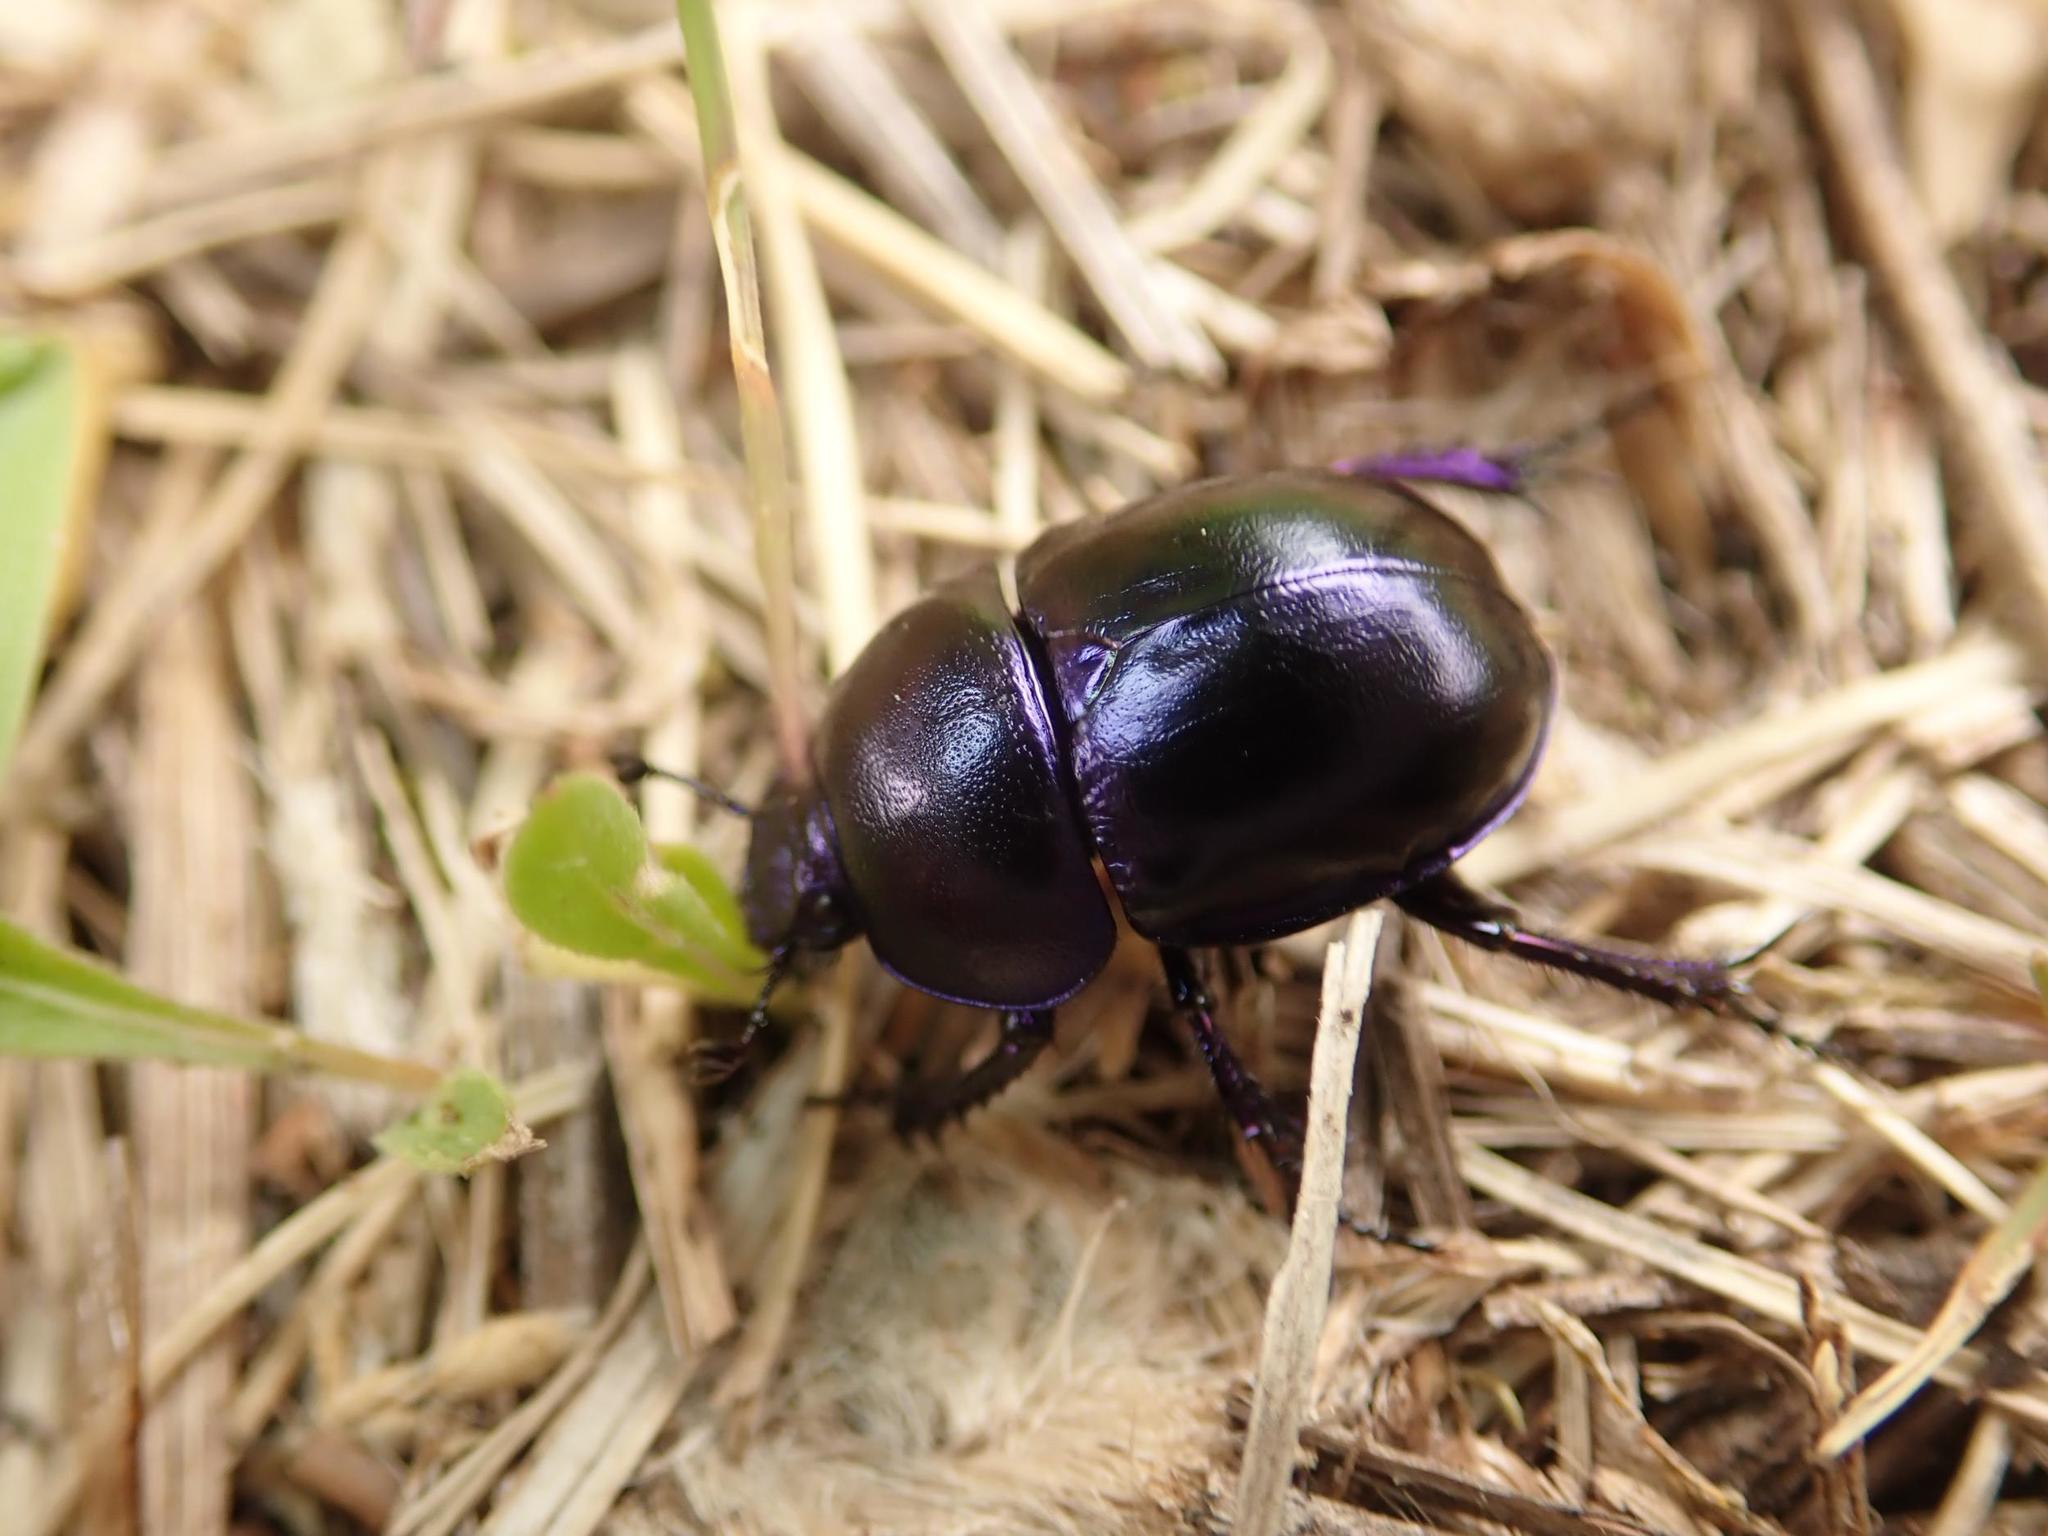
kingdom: Animalia
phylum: Arthropoda
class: Insecta
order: Coleoptera
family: Geotrupidae
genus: Trypocopris
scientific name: Trypocopris vernalis
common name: Spring dumbledor
